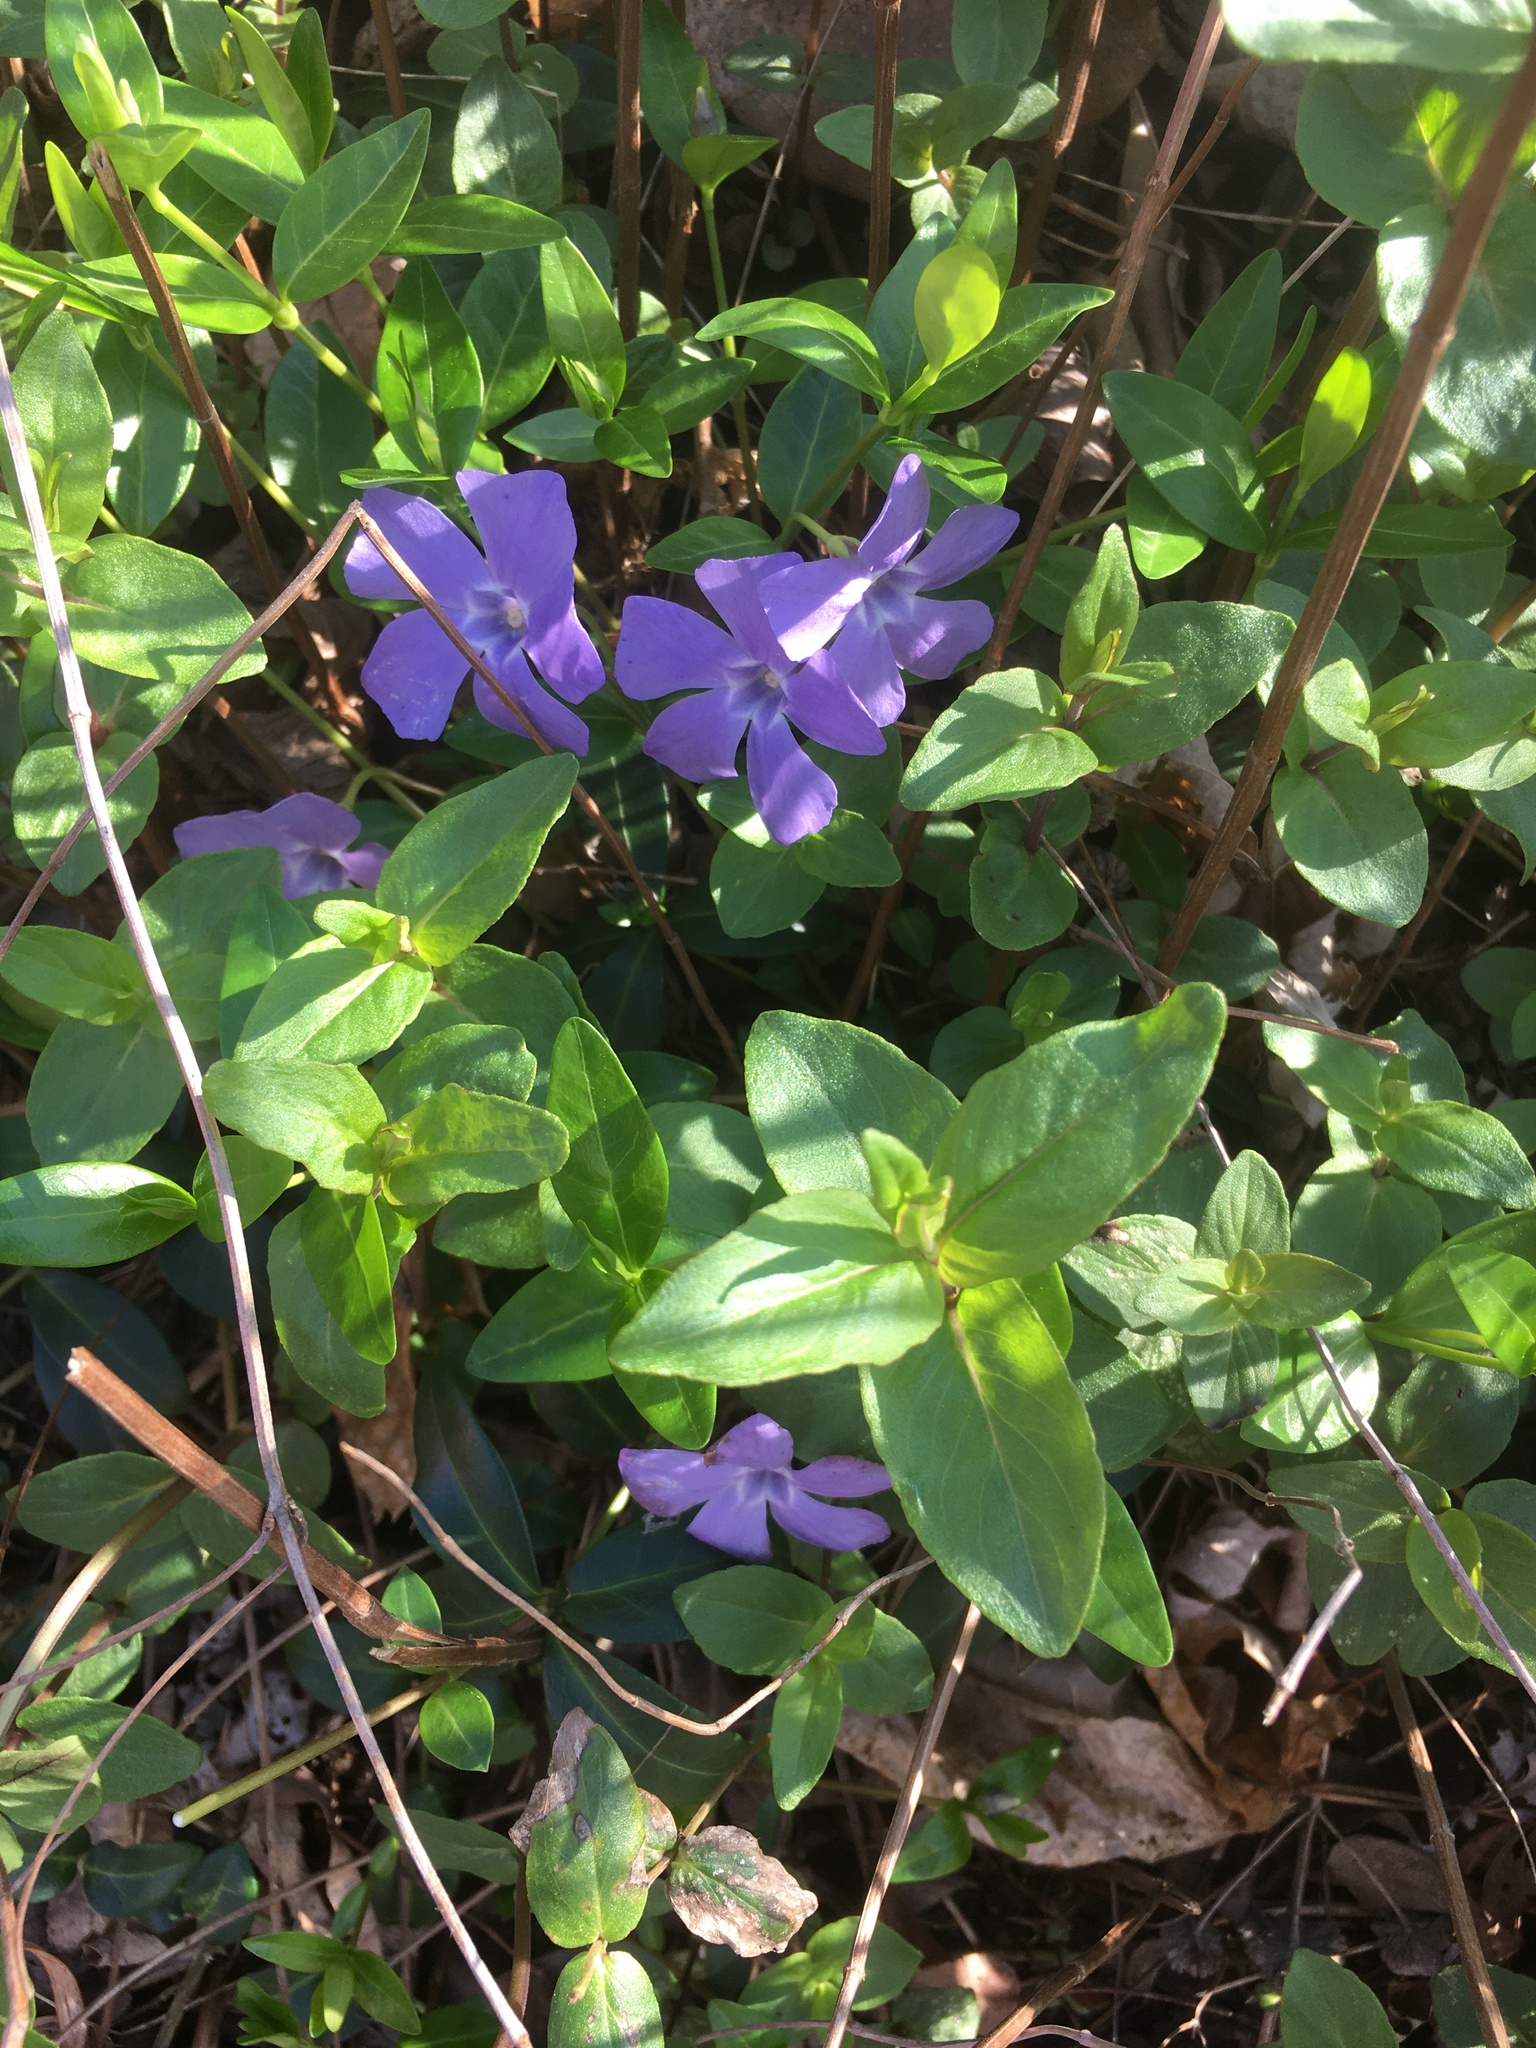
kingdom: Plantae
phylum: Tracheophyta
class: Magnoliopsida
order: Gentianales
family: Apocynaceae
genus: Vinca
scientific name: Vinca minor
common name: Lesser periwinkle
